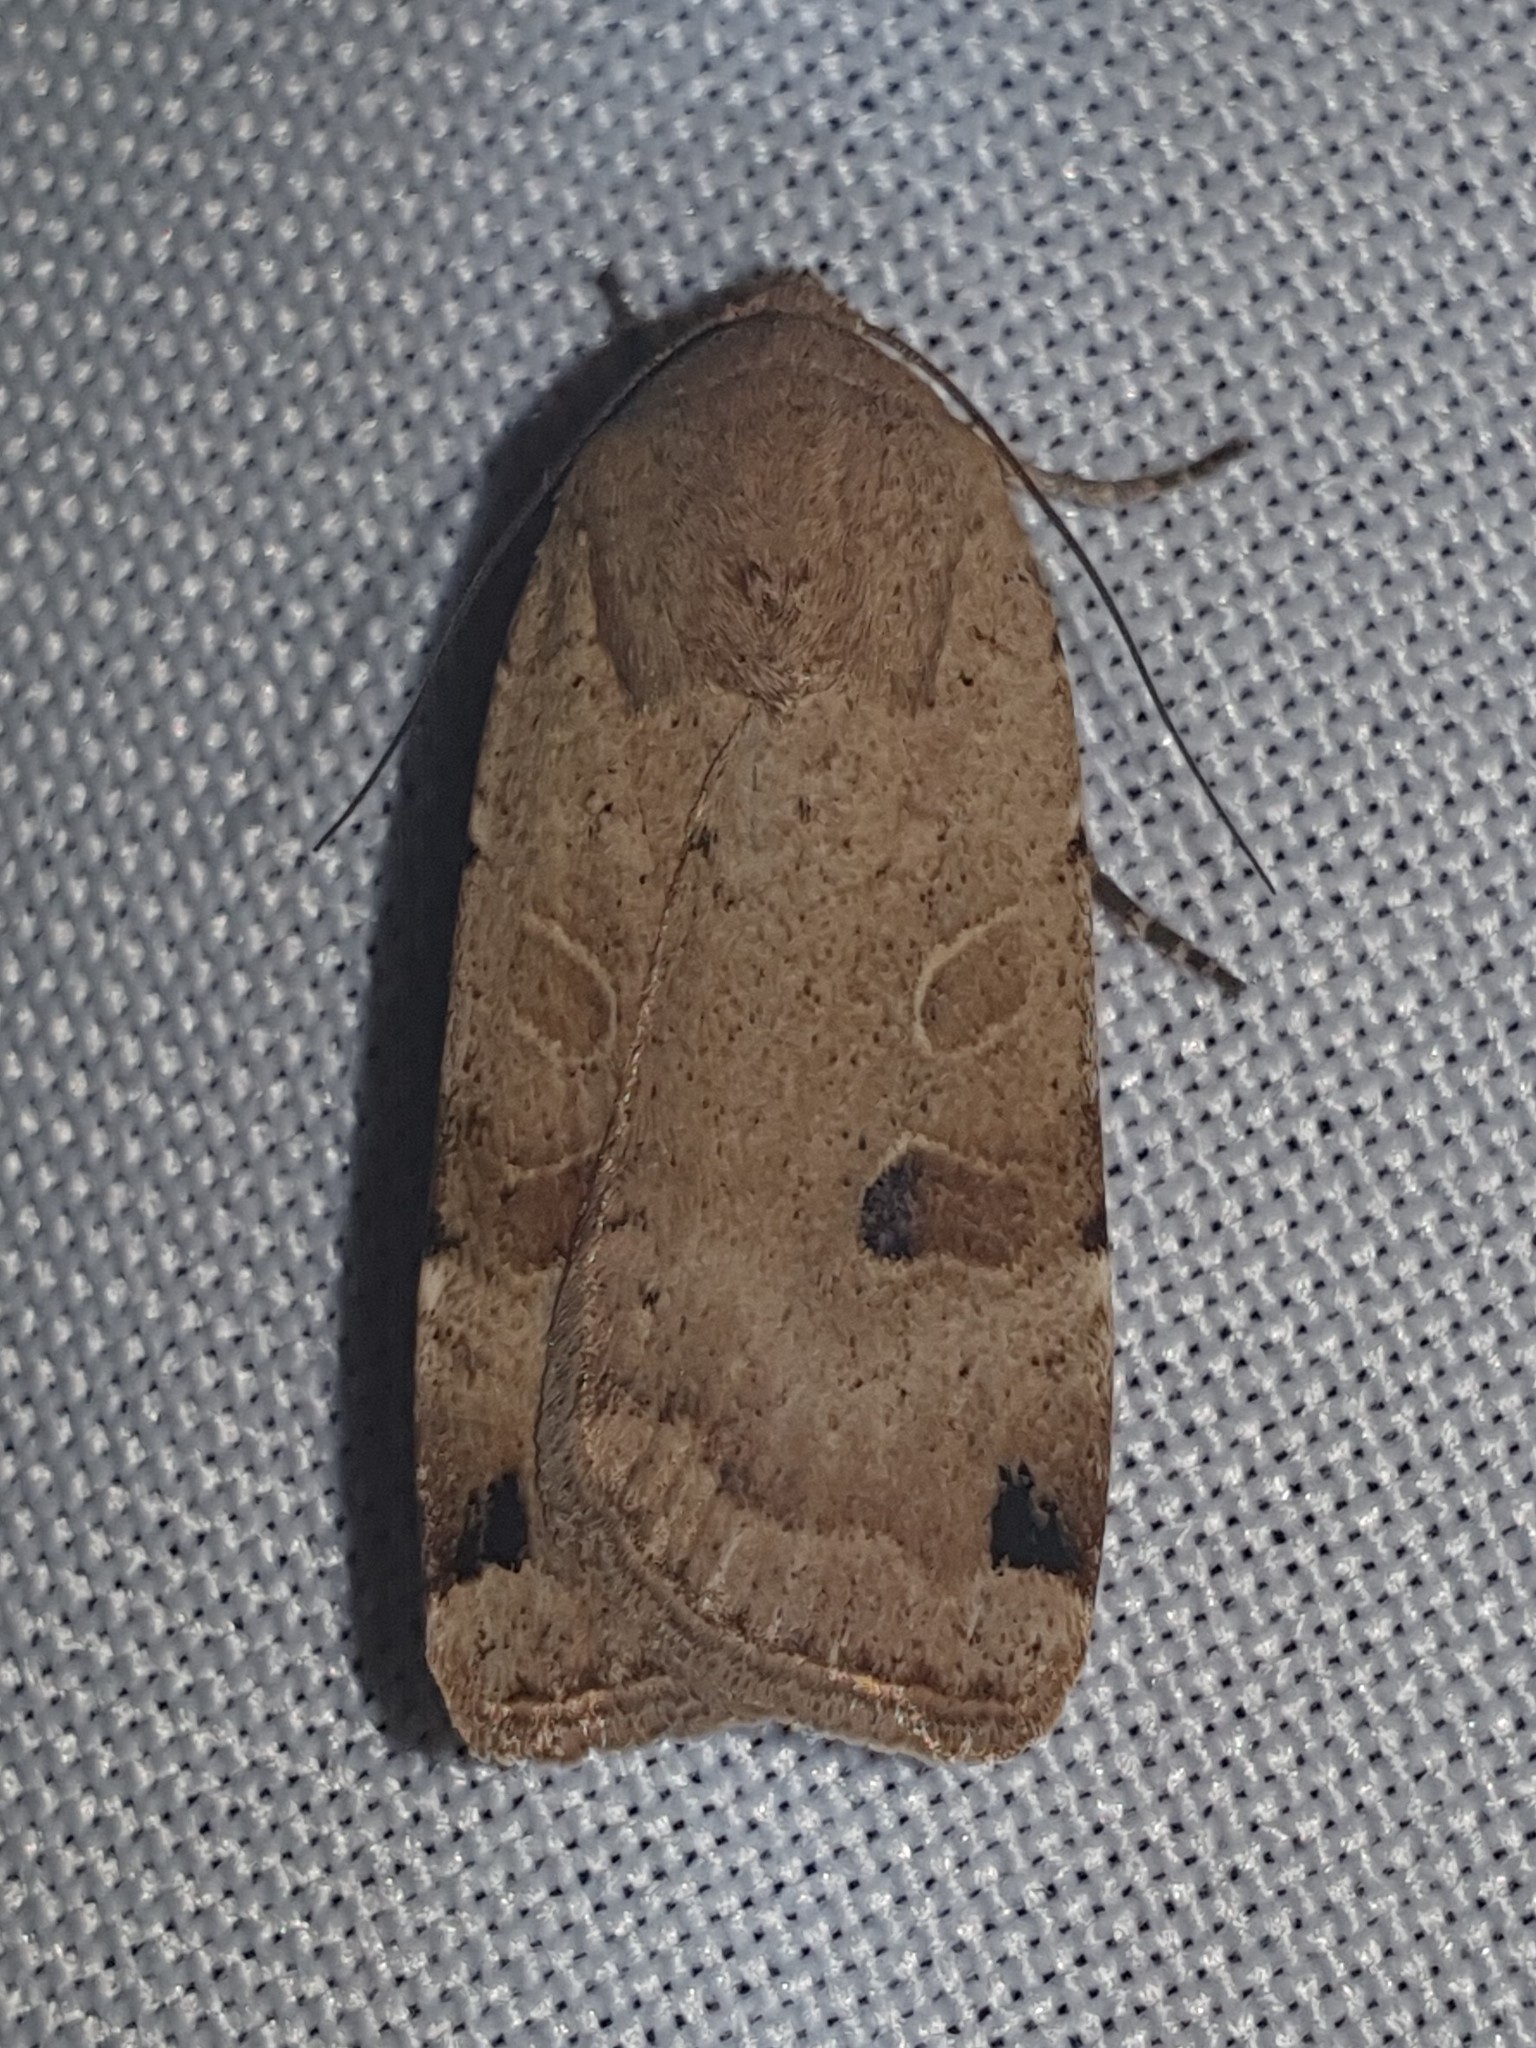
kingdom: Animalia
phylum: Arthropoda
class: Insecta
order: Lepidoptera
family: Noctuidae
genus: Noctua
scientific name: Noctua orbona
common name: Lunar yellow underwing
